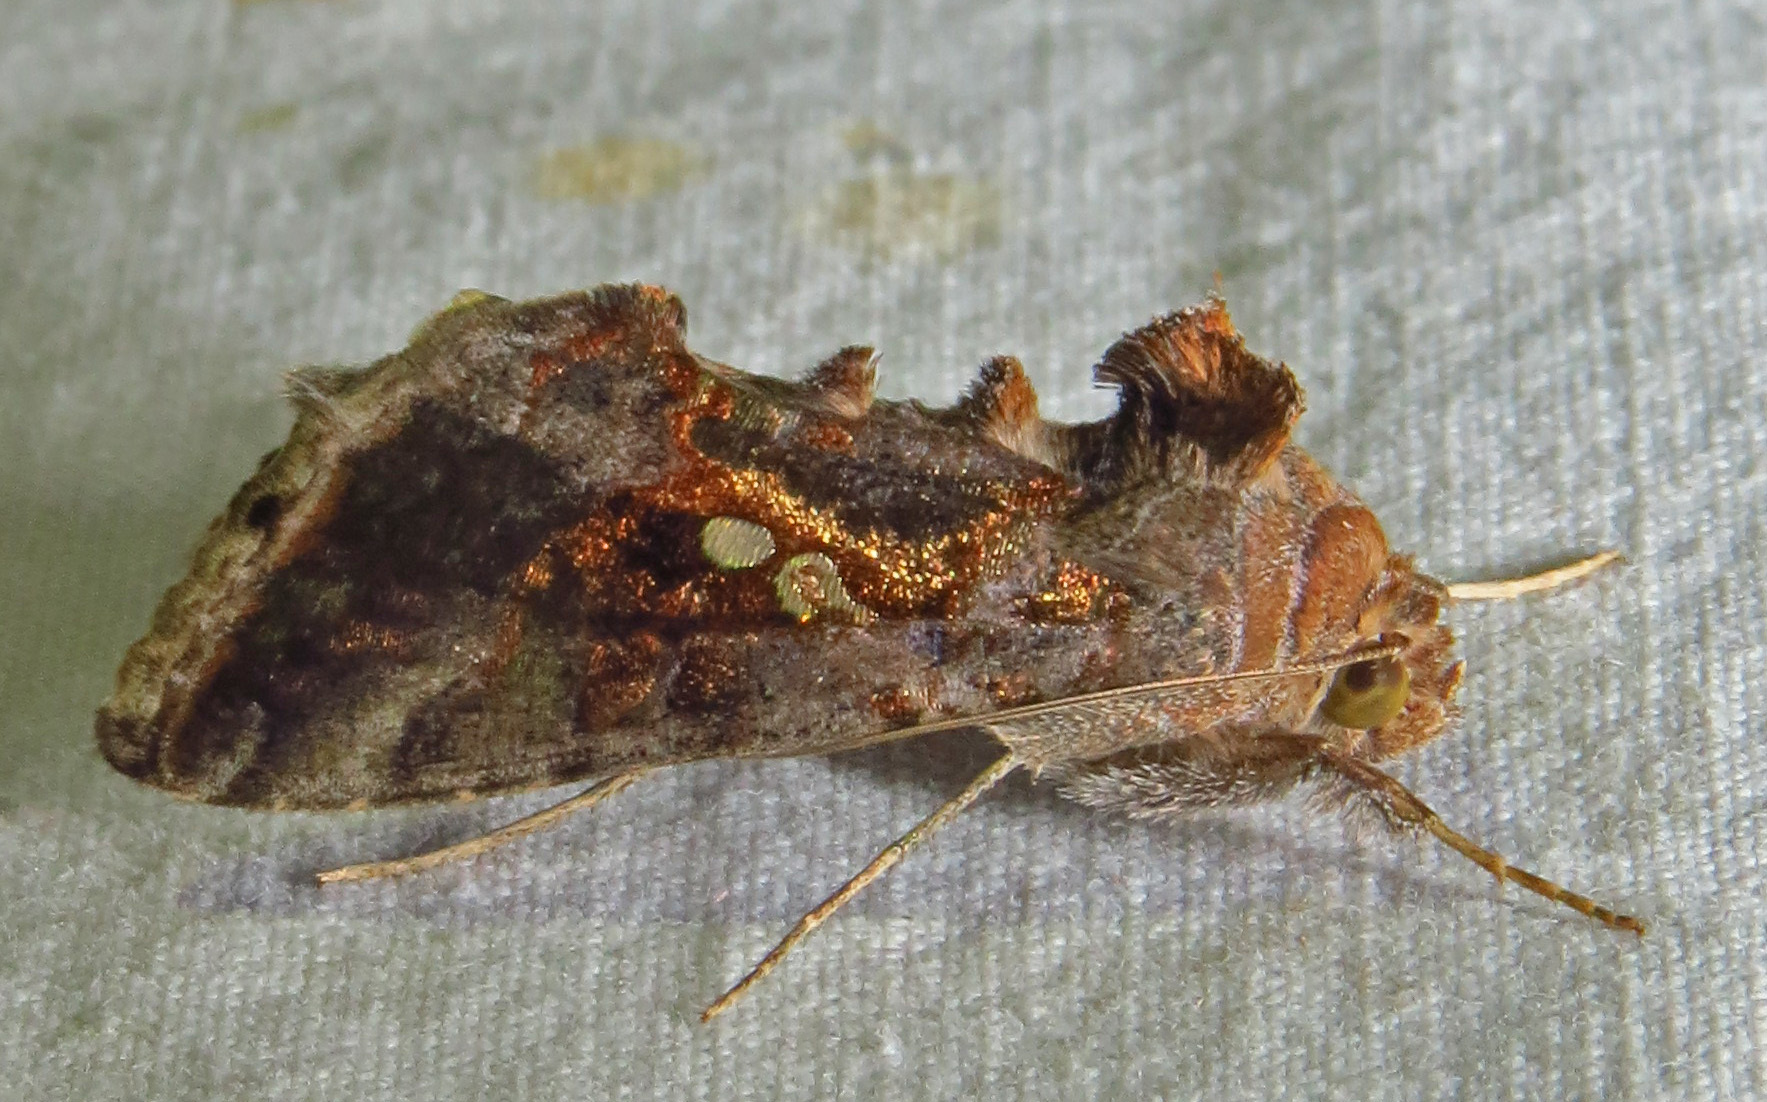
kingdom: Animalia
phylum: Arthropoda
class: Insecta
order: Lepidoptera
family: Noctuidae
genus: Chrysodeixis
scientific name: Chrysodeixis includens
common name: Cutworm moth
